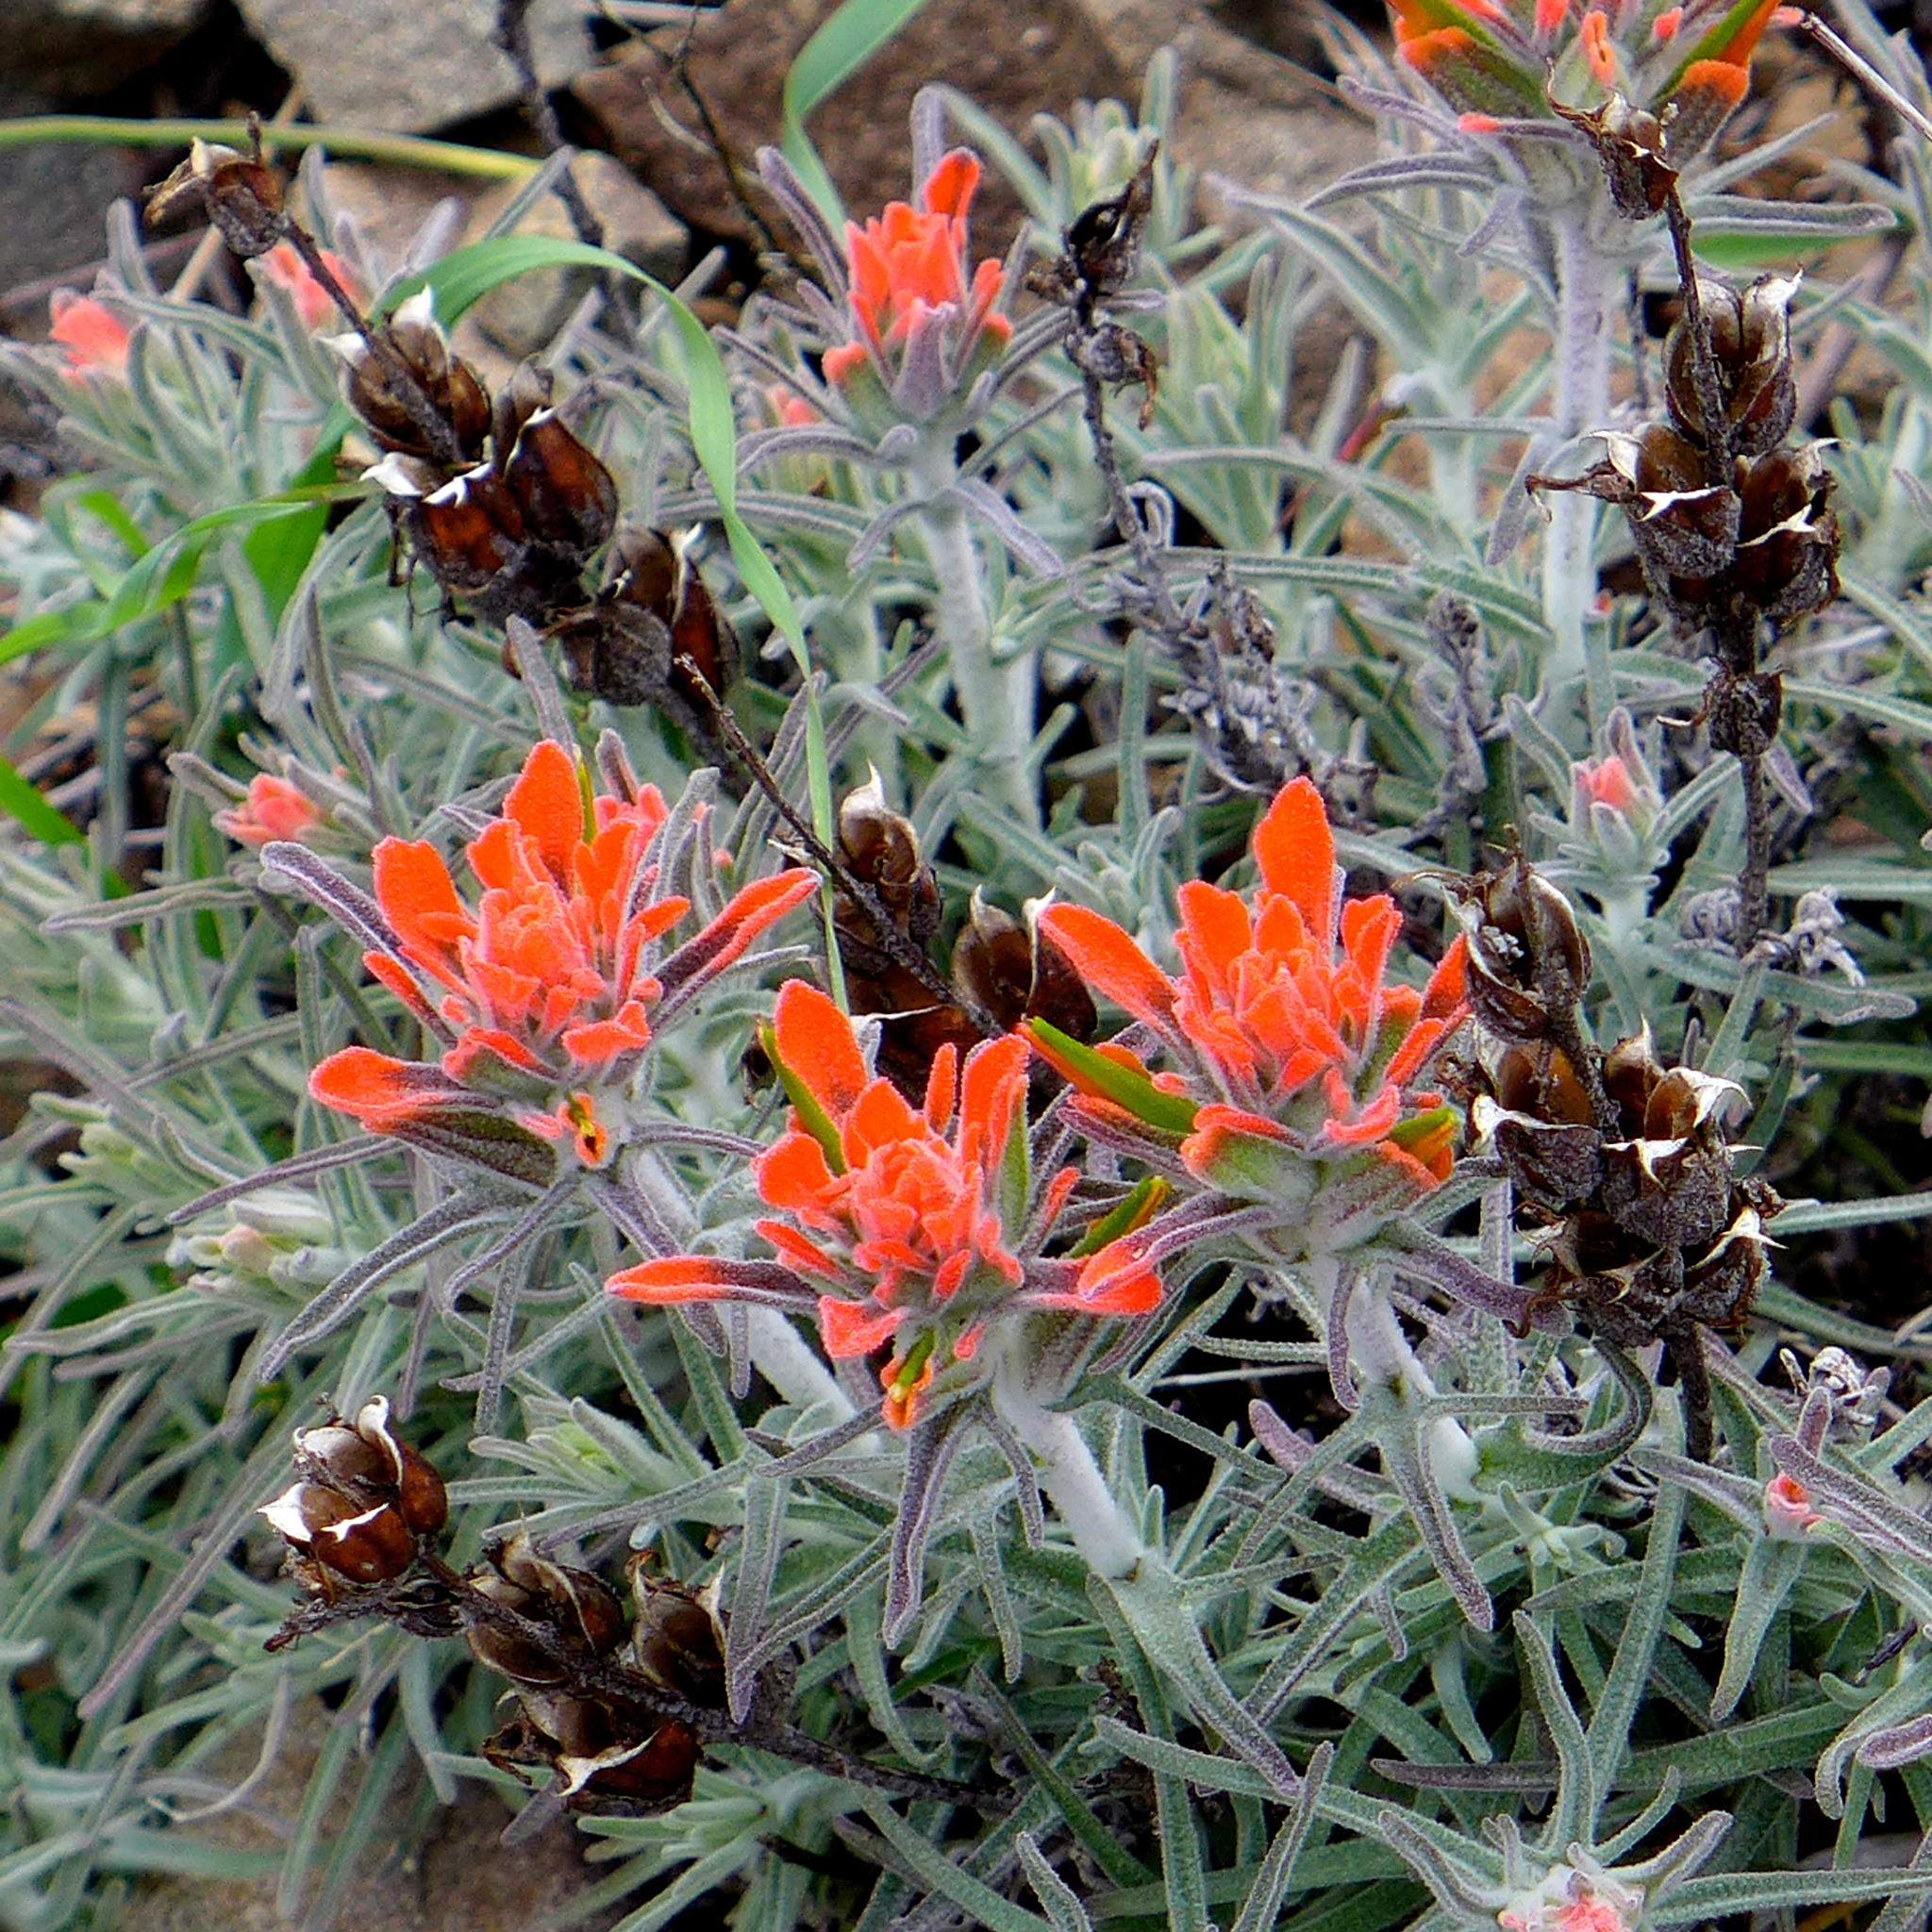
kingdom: Plantae
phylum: Tracheophyta
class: Magnoliopsida
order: Lamiales
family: Orobanchaceae
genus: Castilleja
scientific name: Castilleja foliolosa
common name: Woolly indian paintbrush
